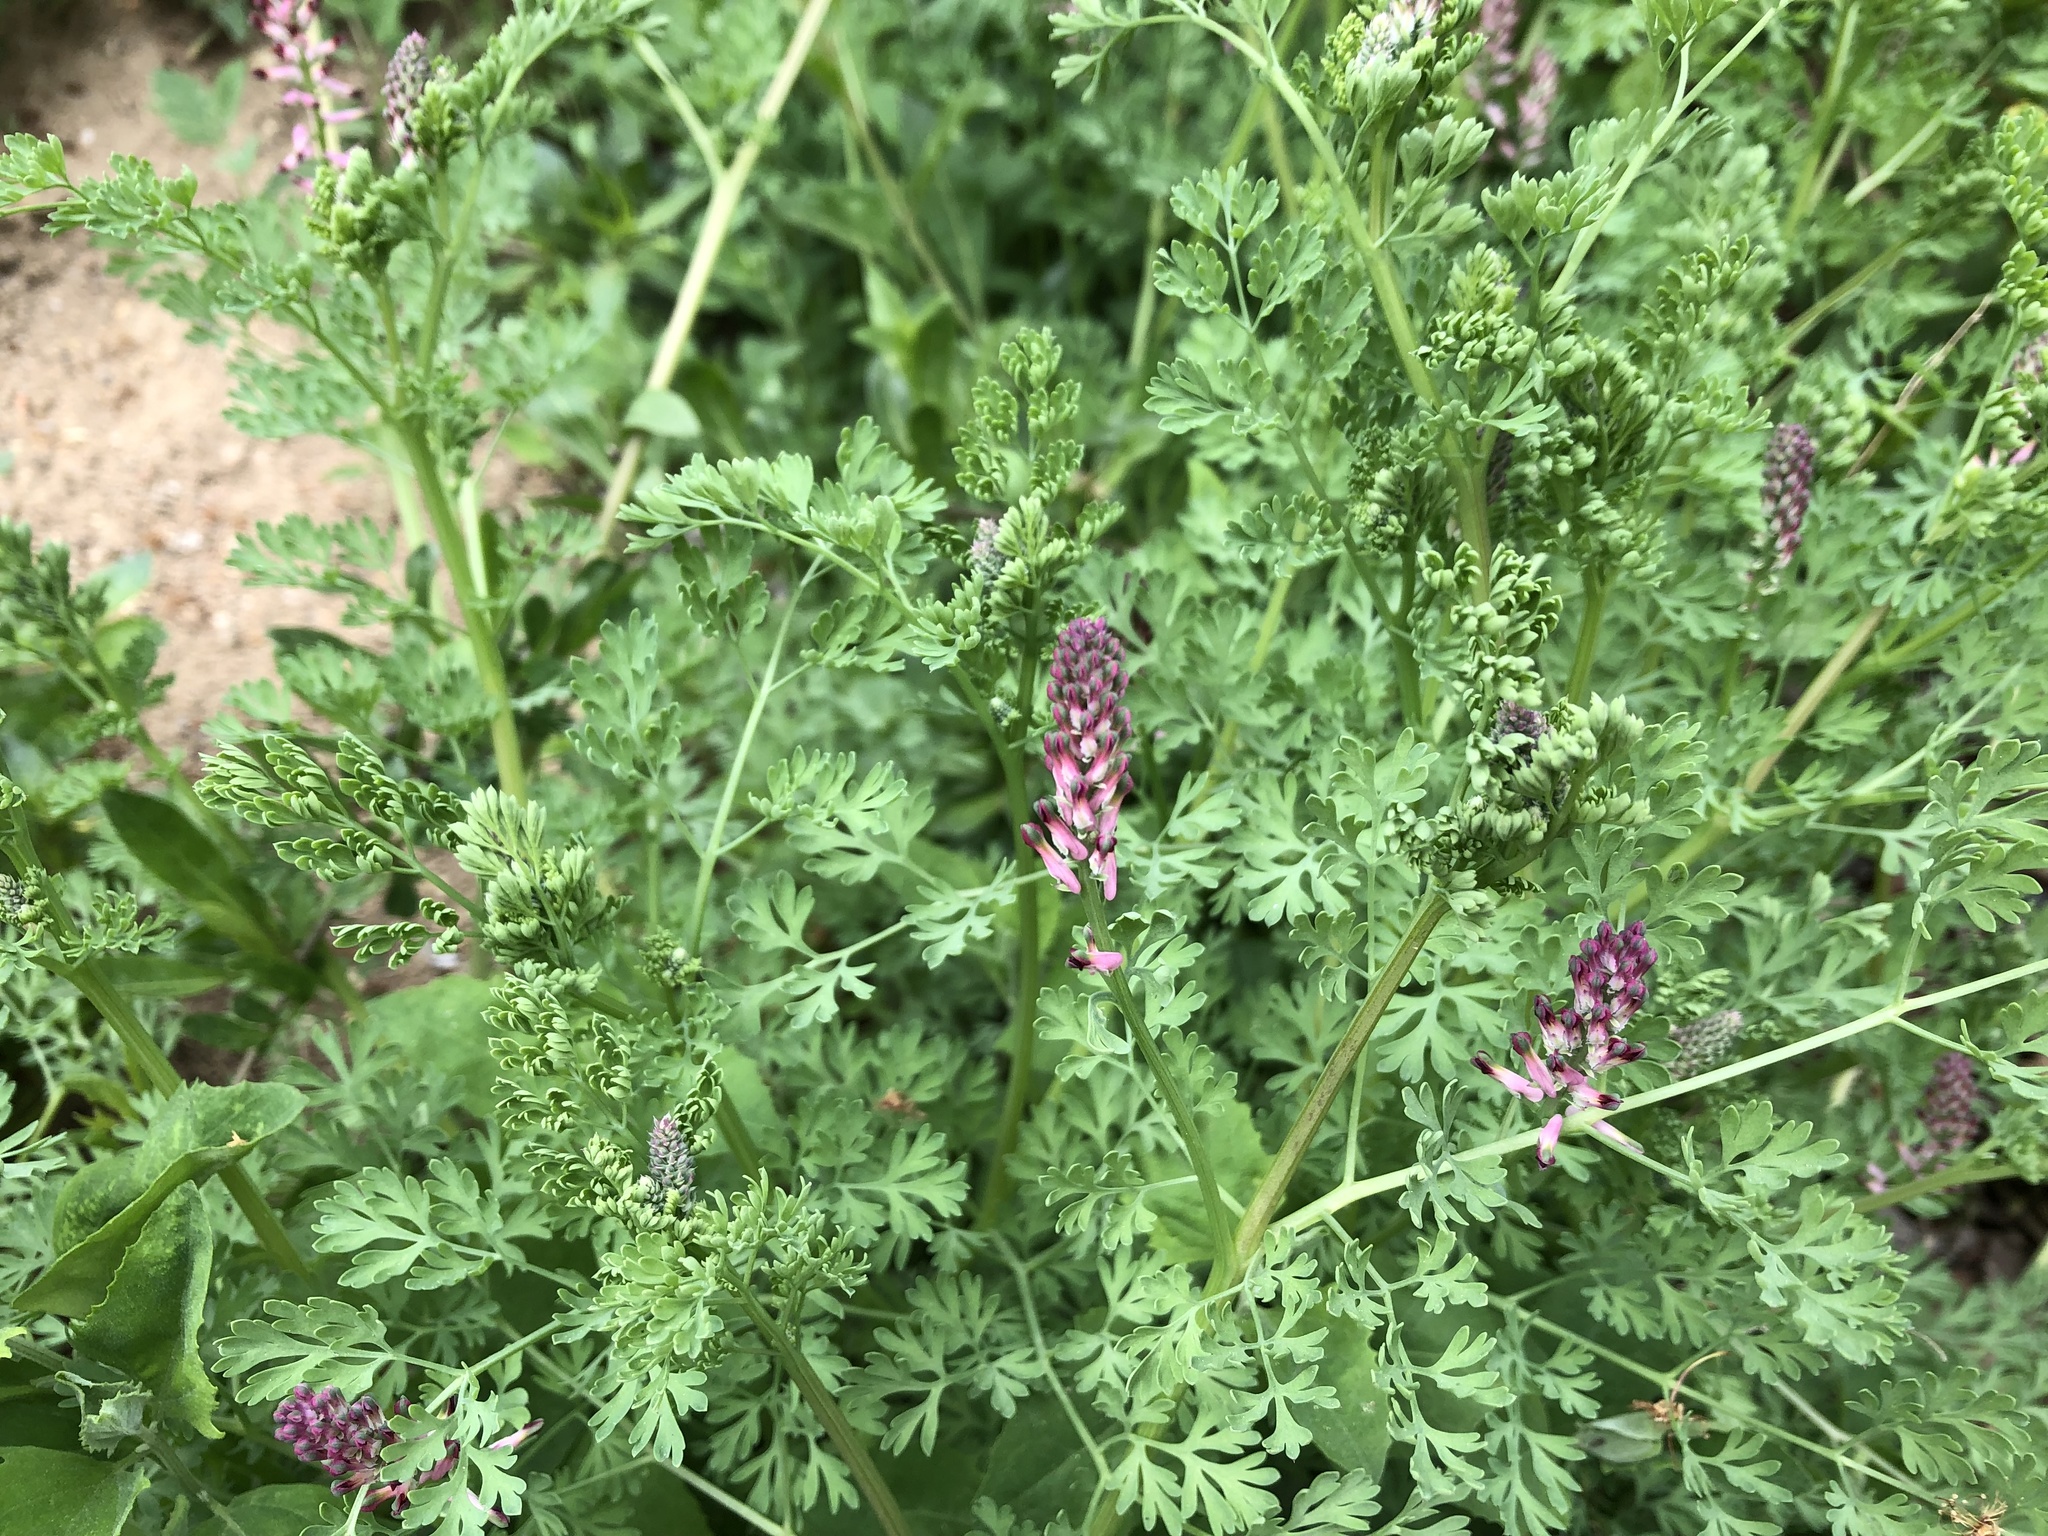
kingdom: Plantae
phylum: Tracheophyta
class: Magnoliopsida
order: Ranunculales
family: Papaveraceae
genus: Fumaria
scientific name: Fumaria officinalis
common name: Common fumitory
